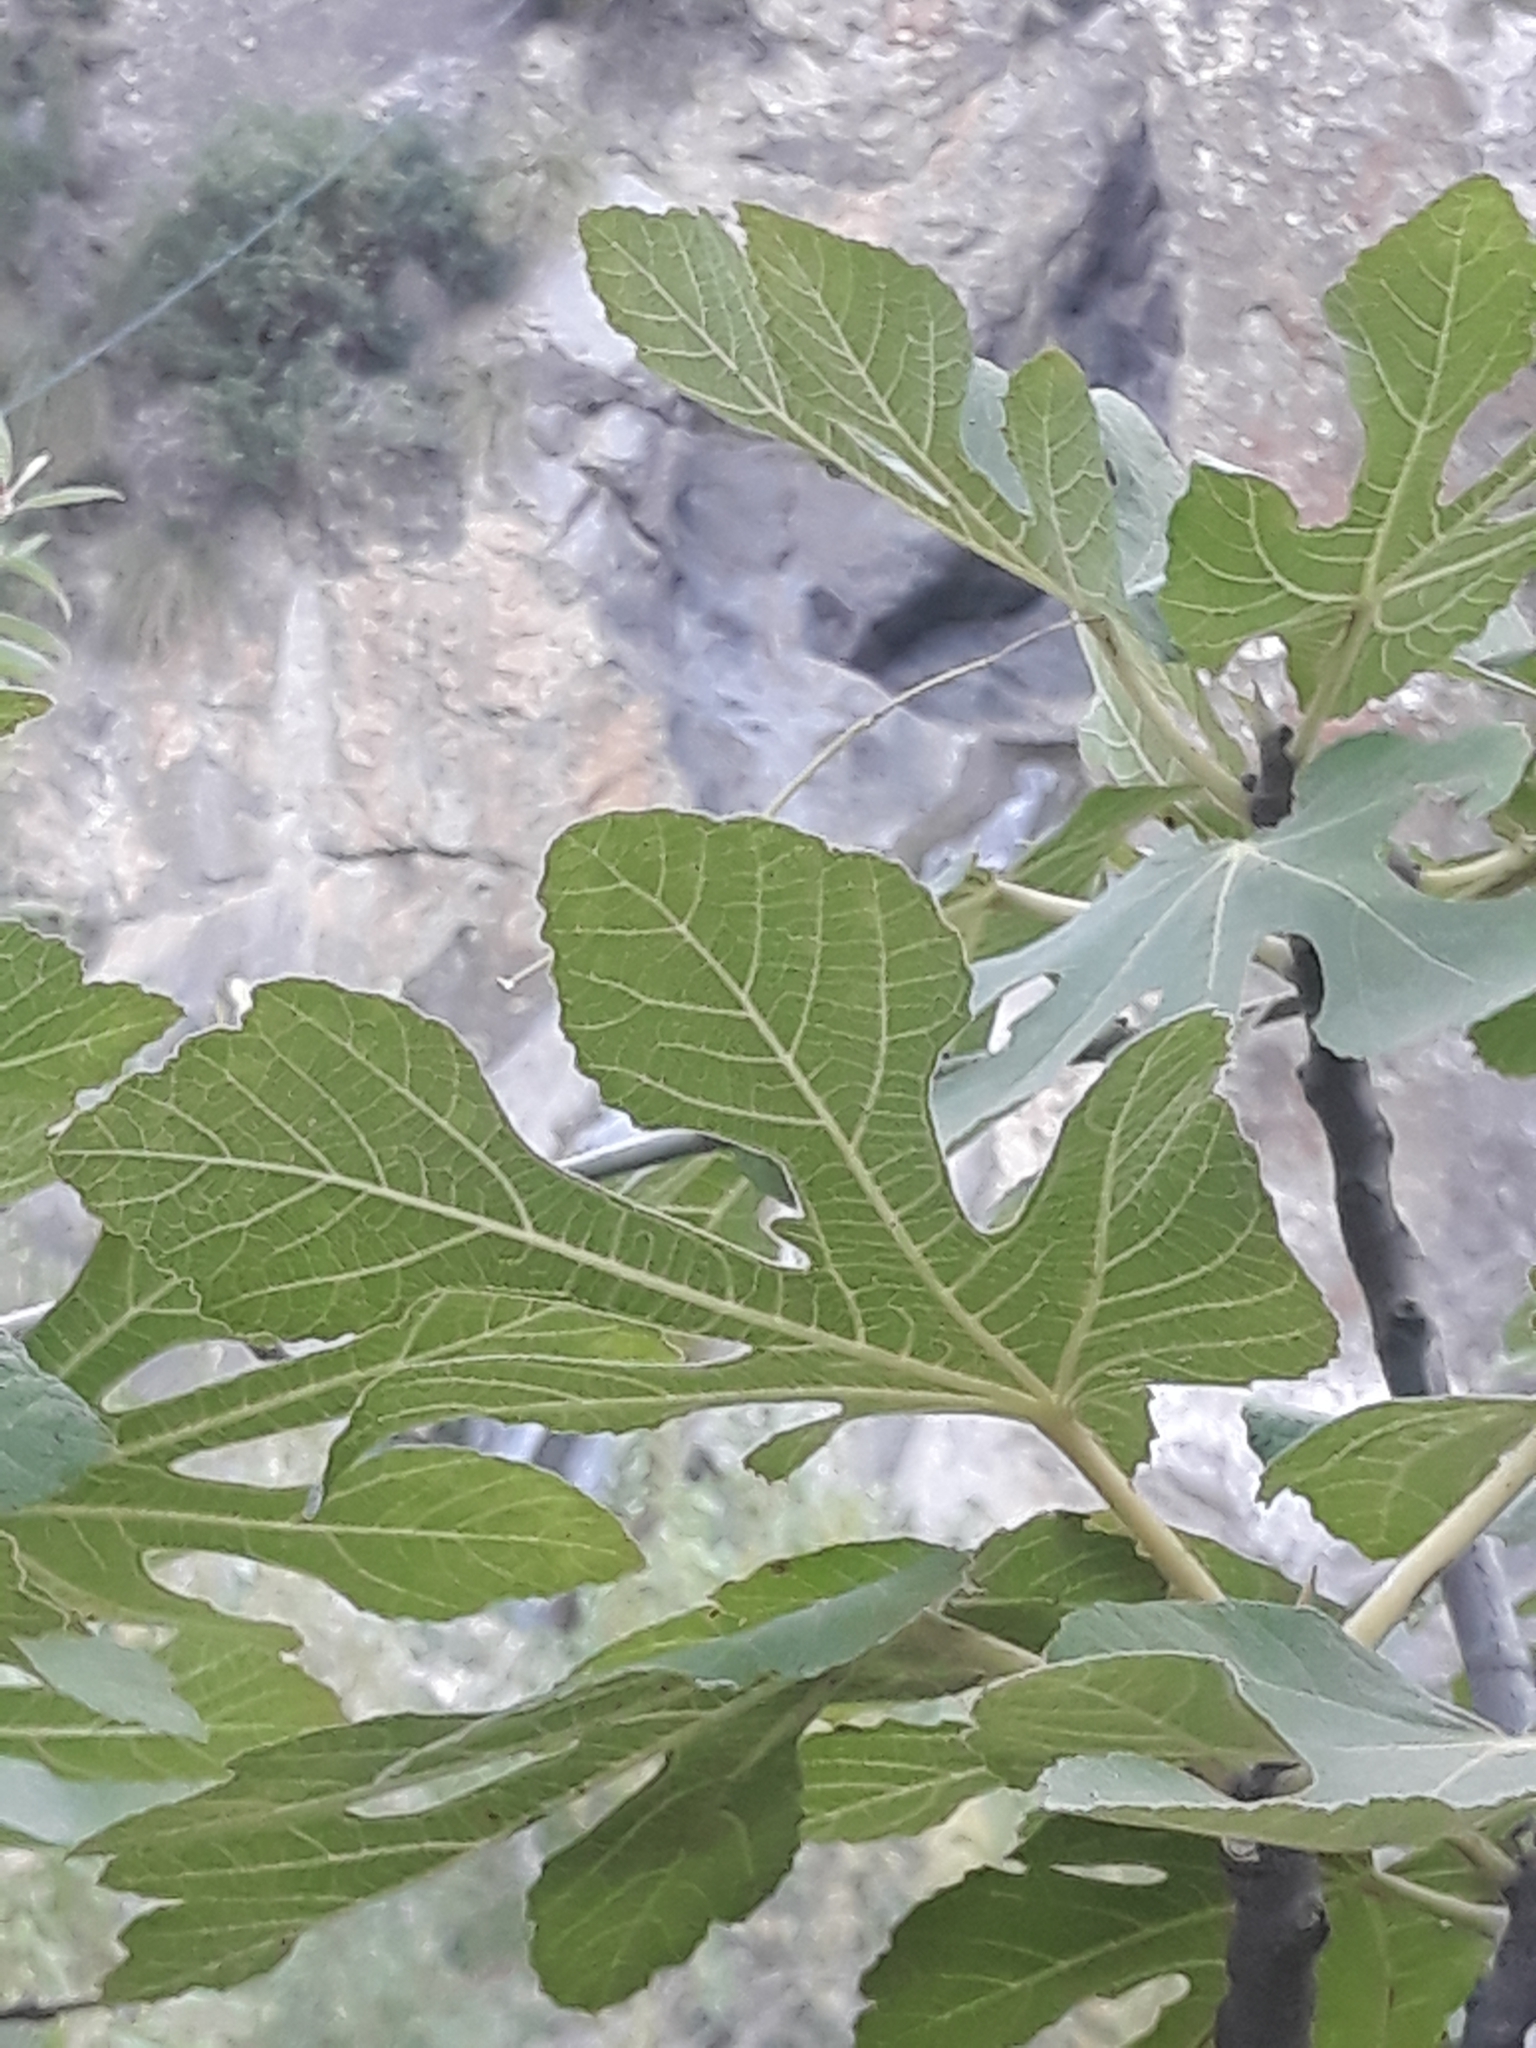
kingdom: Plantae
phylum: Tracheophyta
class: Magnoliopsida
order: Rosales
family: Moraceae
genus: Ficus
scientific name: Ficus carica
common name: Fig
